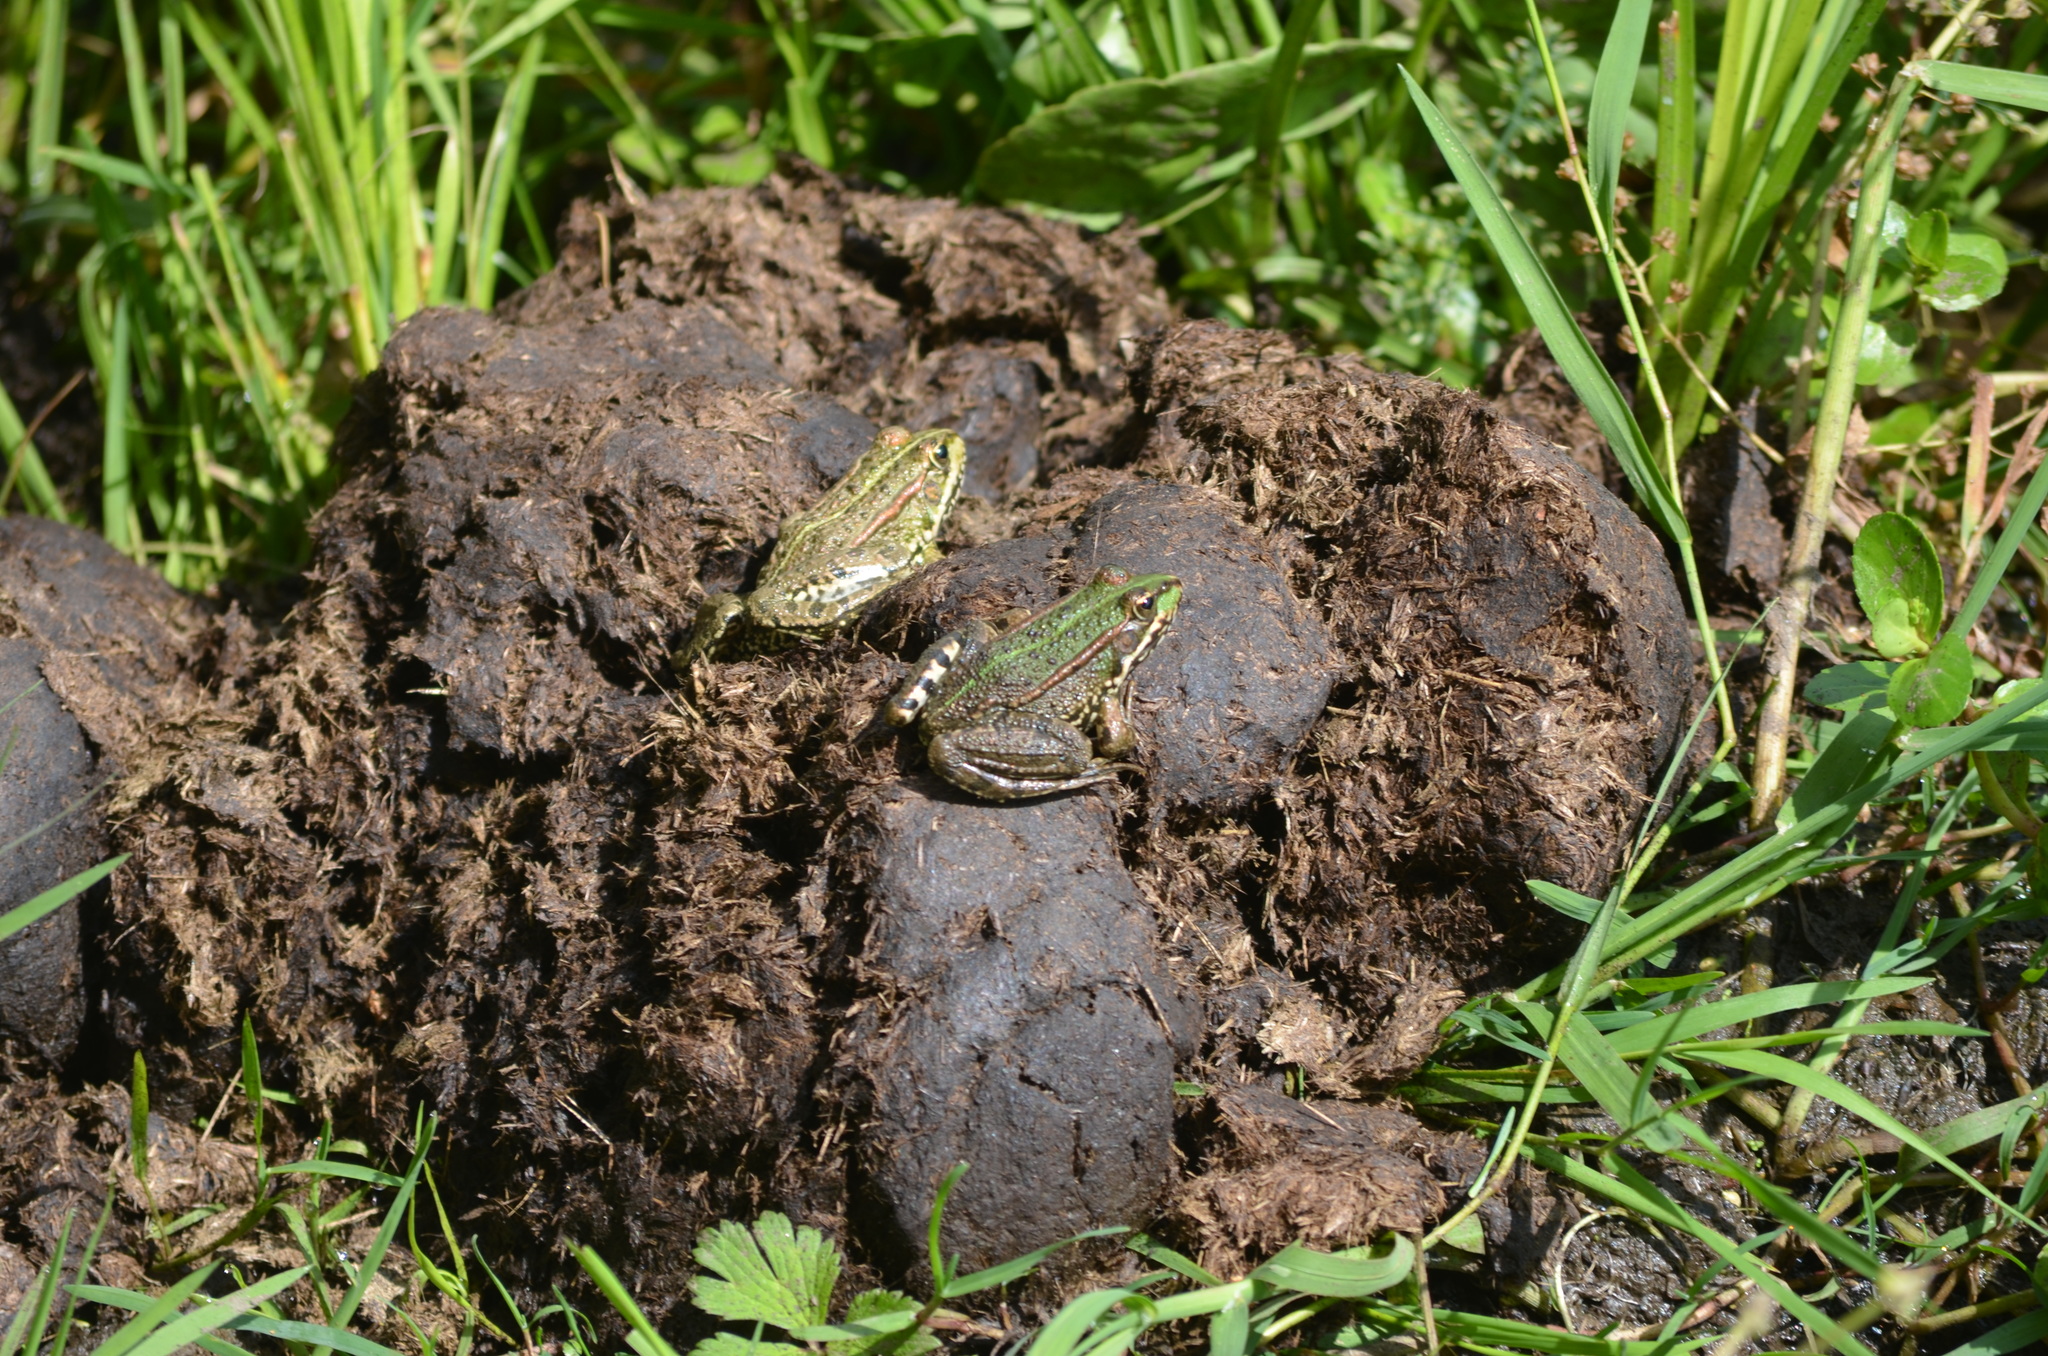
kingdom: Animalia
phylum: Chordata
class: Amphibia
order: Anura
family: Ranidae
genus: Pelophylax
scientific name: Pelophylax perezi
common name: Perez's frog
